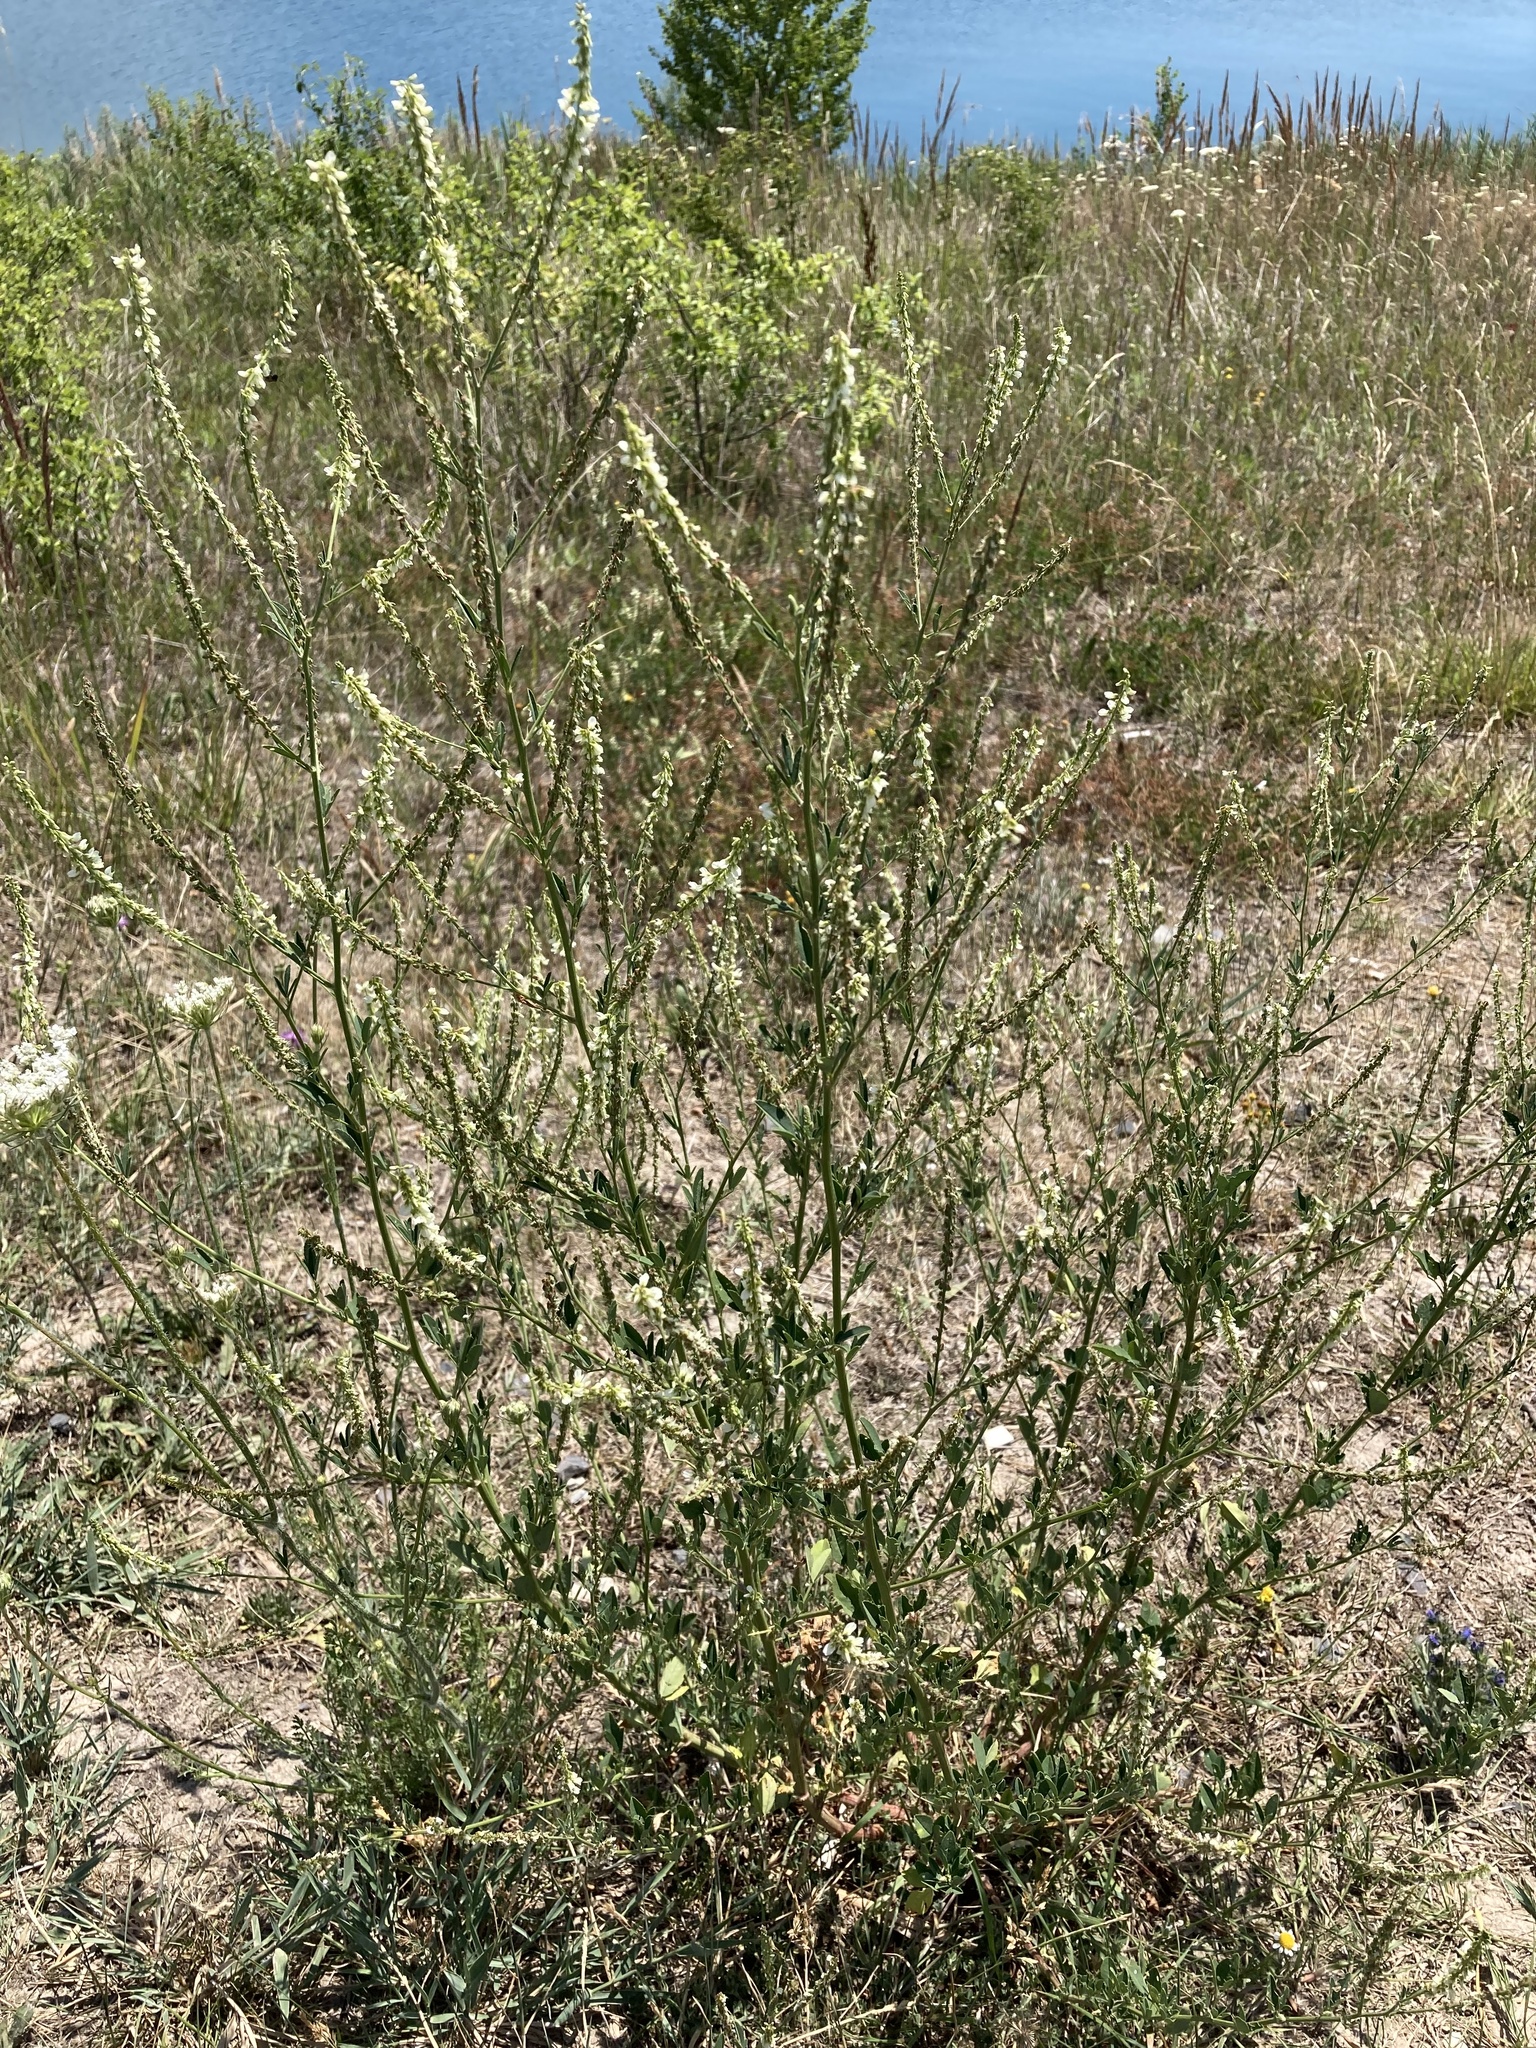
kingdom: Plantae
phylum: Tracheophyta
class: Magnoliopsida
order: Fabales
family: Fabaceae
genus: Melilotus
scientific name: Melilotus albus
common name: White melilot
